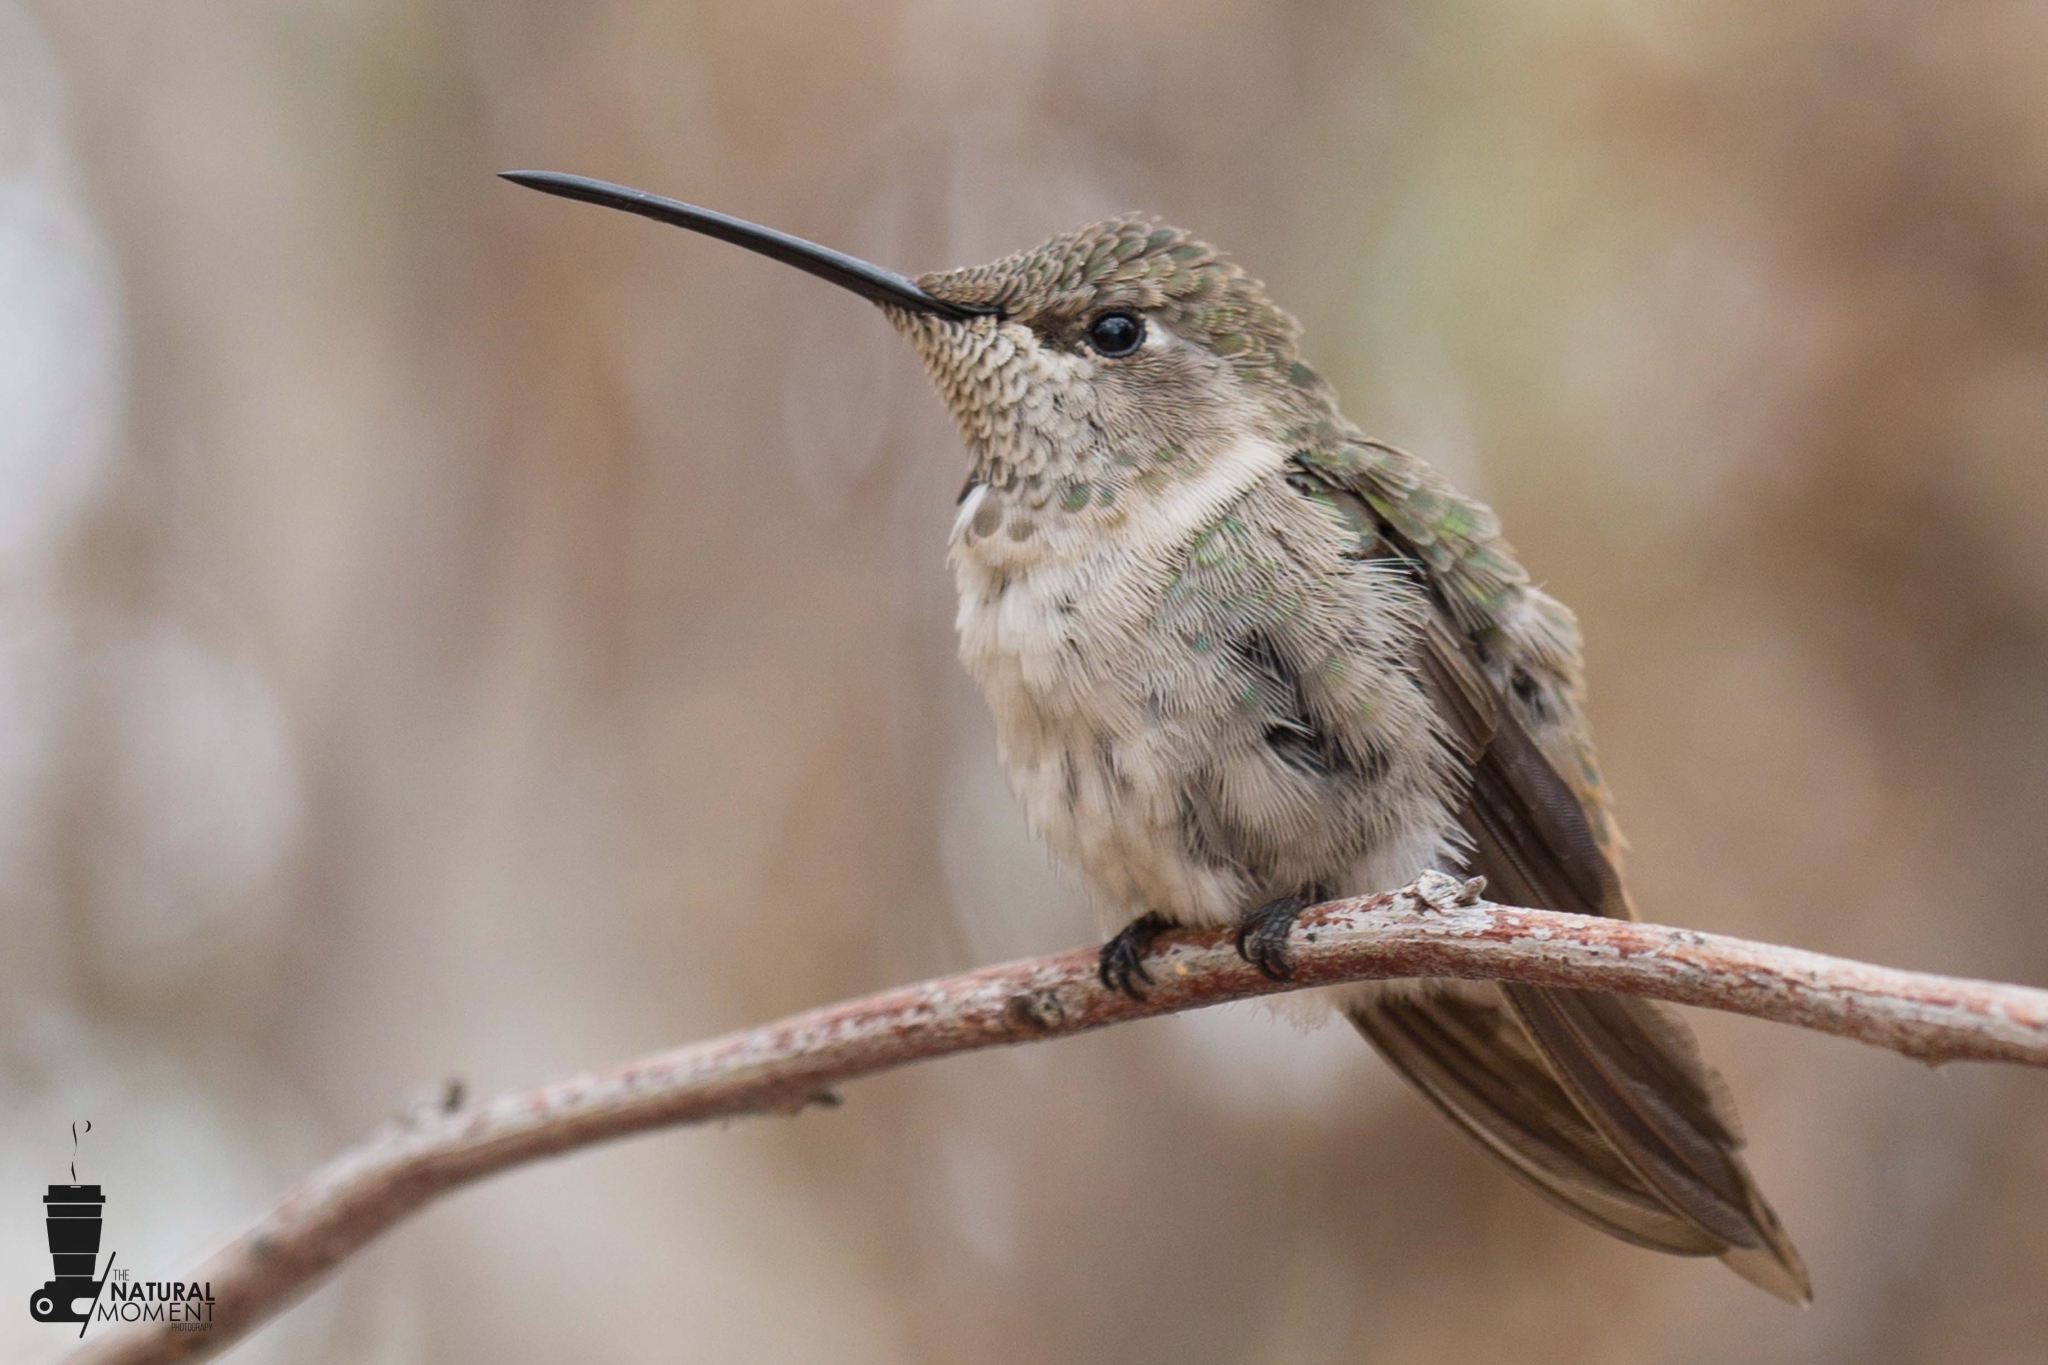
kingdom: Animalia
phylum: Chordata
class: Aves
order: Apodiformes
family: Trochilidae
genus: Rhodopis
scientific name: Rhodopis vesper
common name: Oasis hummingbird
